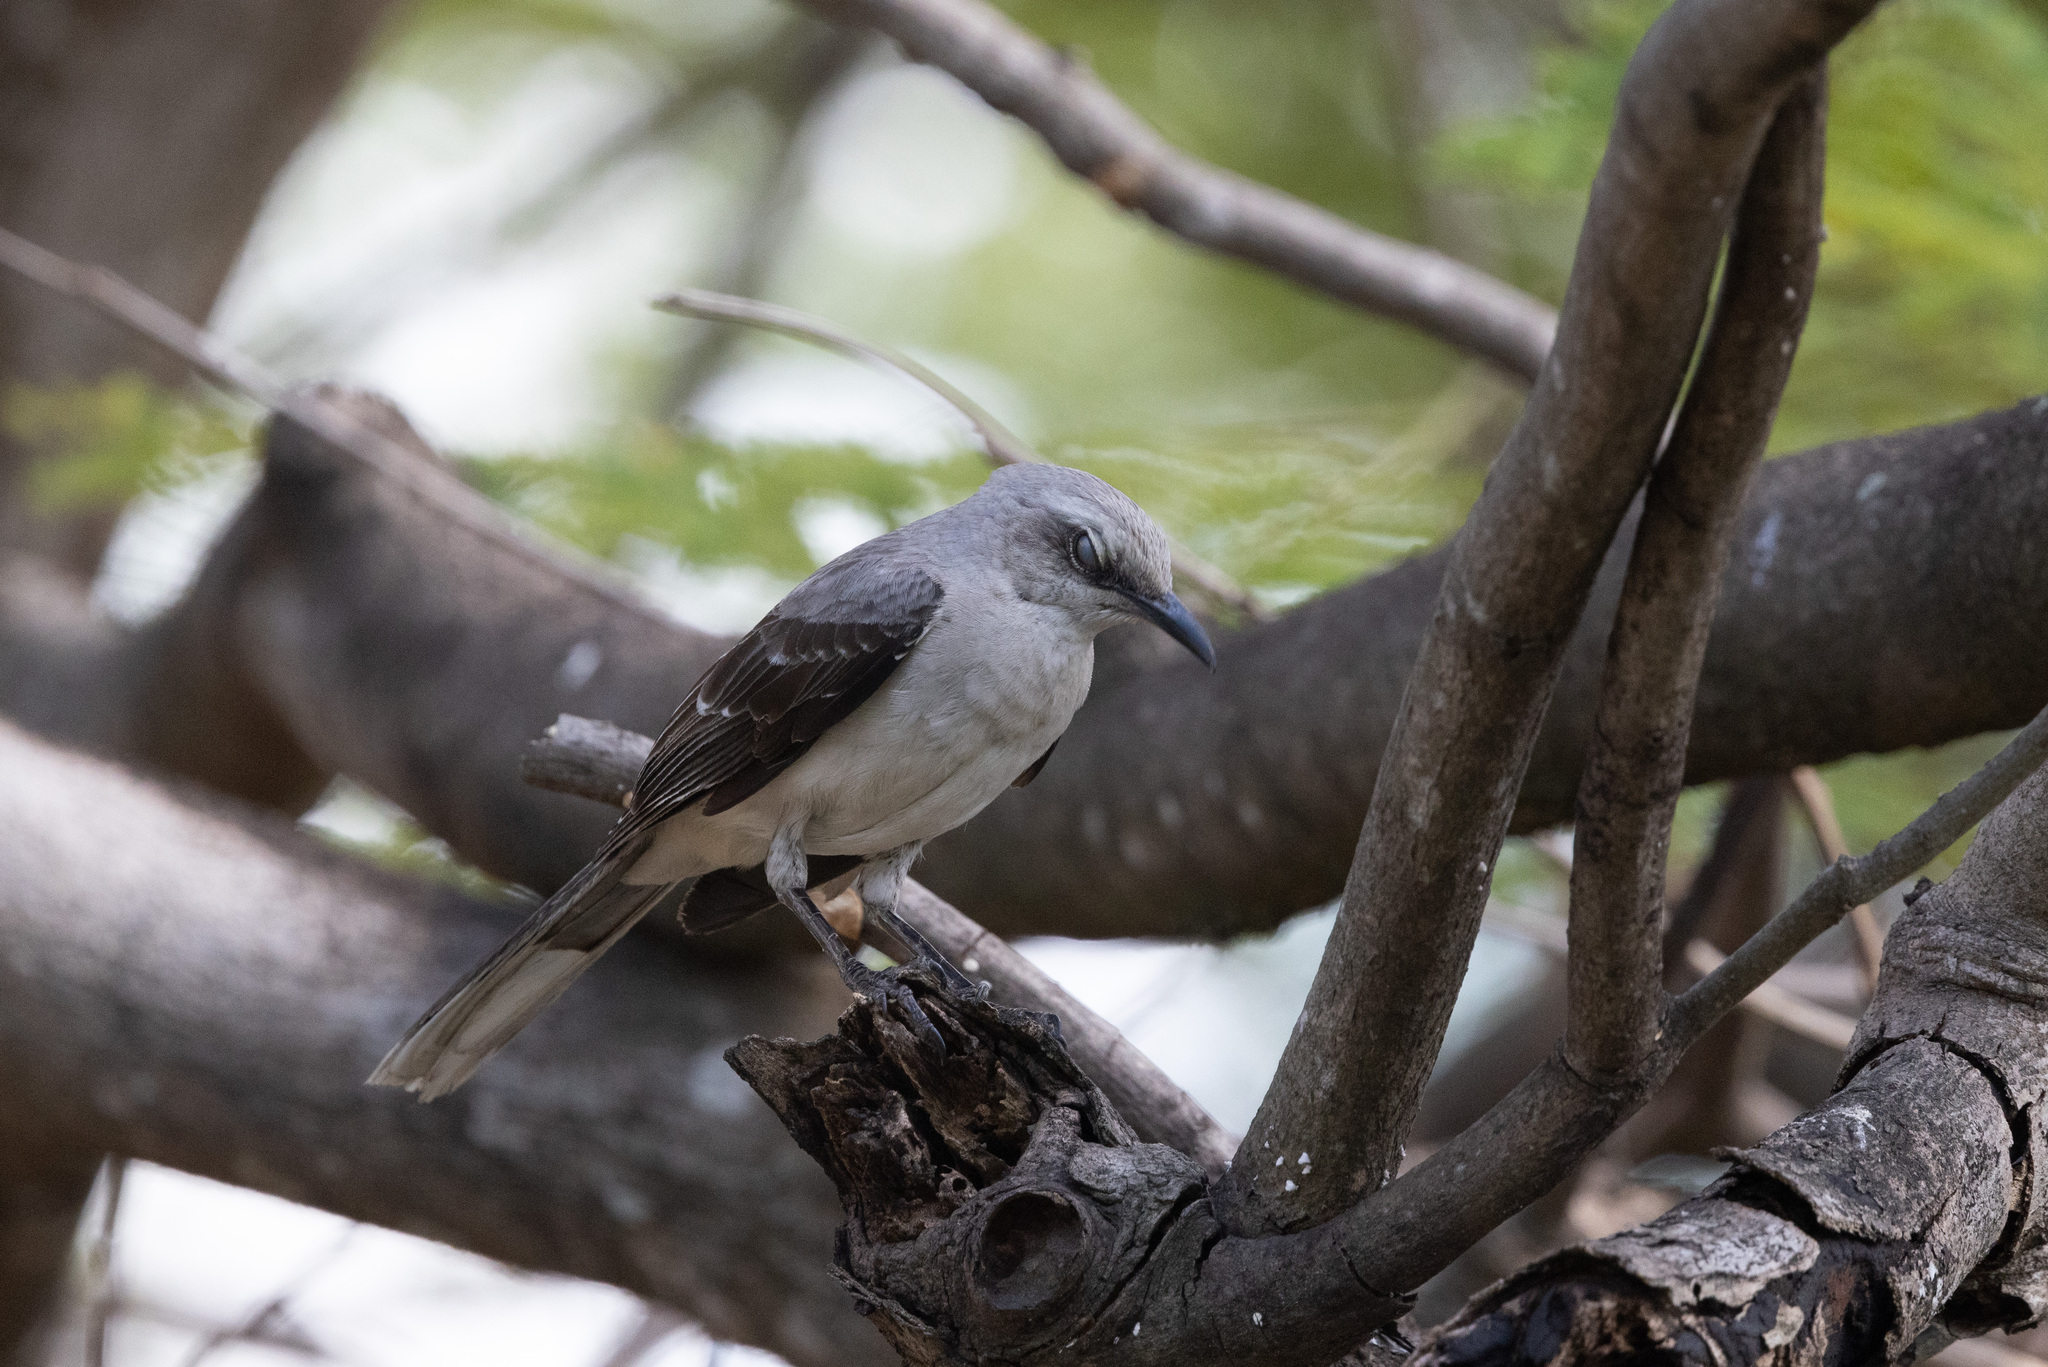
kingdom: Animalia
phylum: Chordata
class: Aves
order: Passeriformes
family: Mimidae
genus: Mimus
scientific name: Mimus gilvus
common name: Tropical mockingbird
